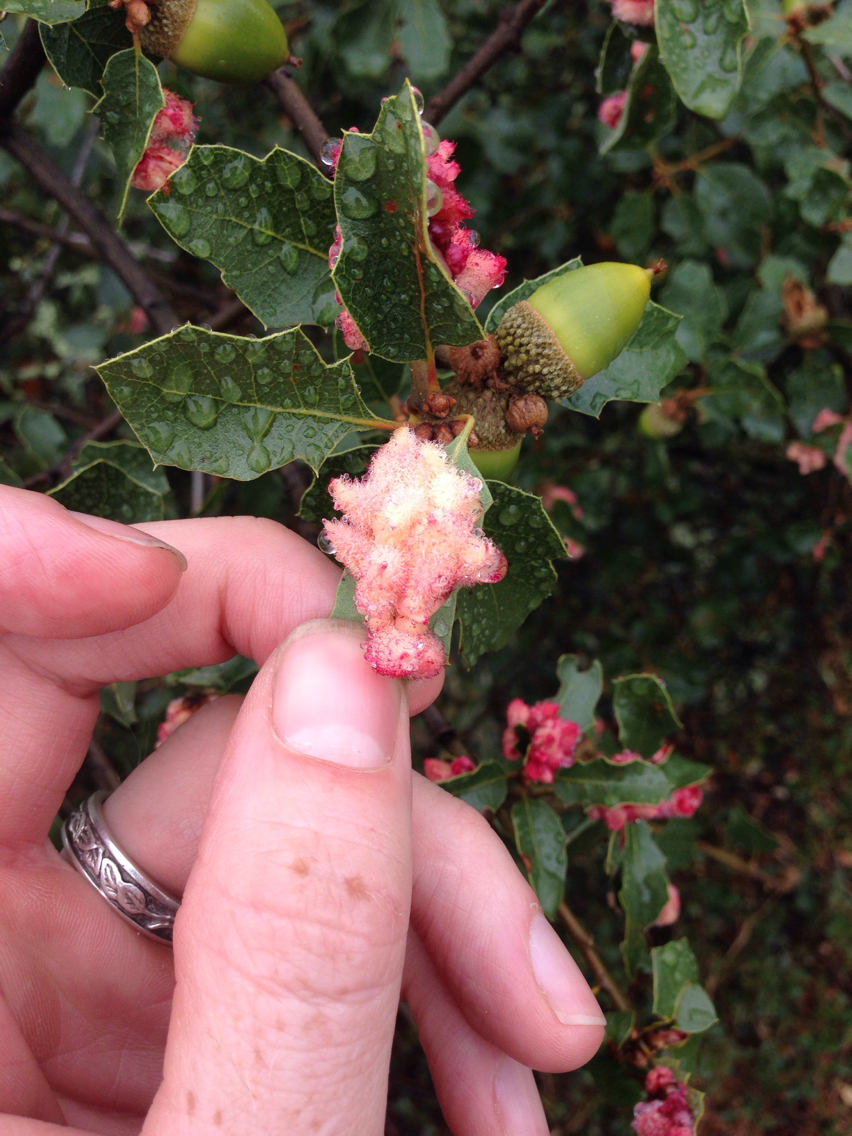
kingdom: Animalia
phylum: Arthropoda
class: Insecta
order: Hymenoptera
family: Cynipidae
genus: Andricus
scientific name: Andricus
